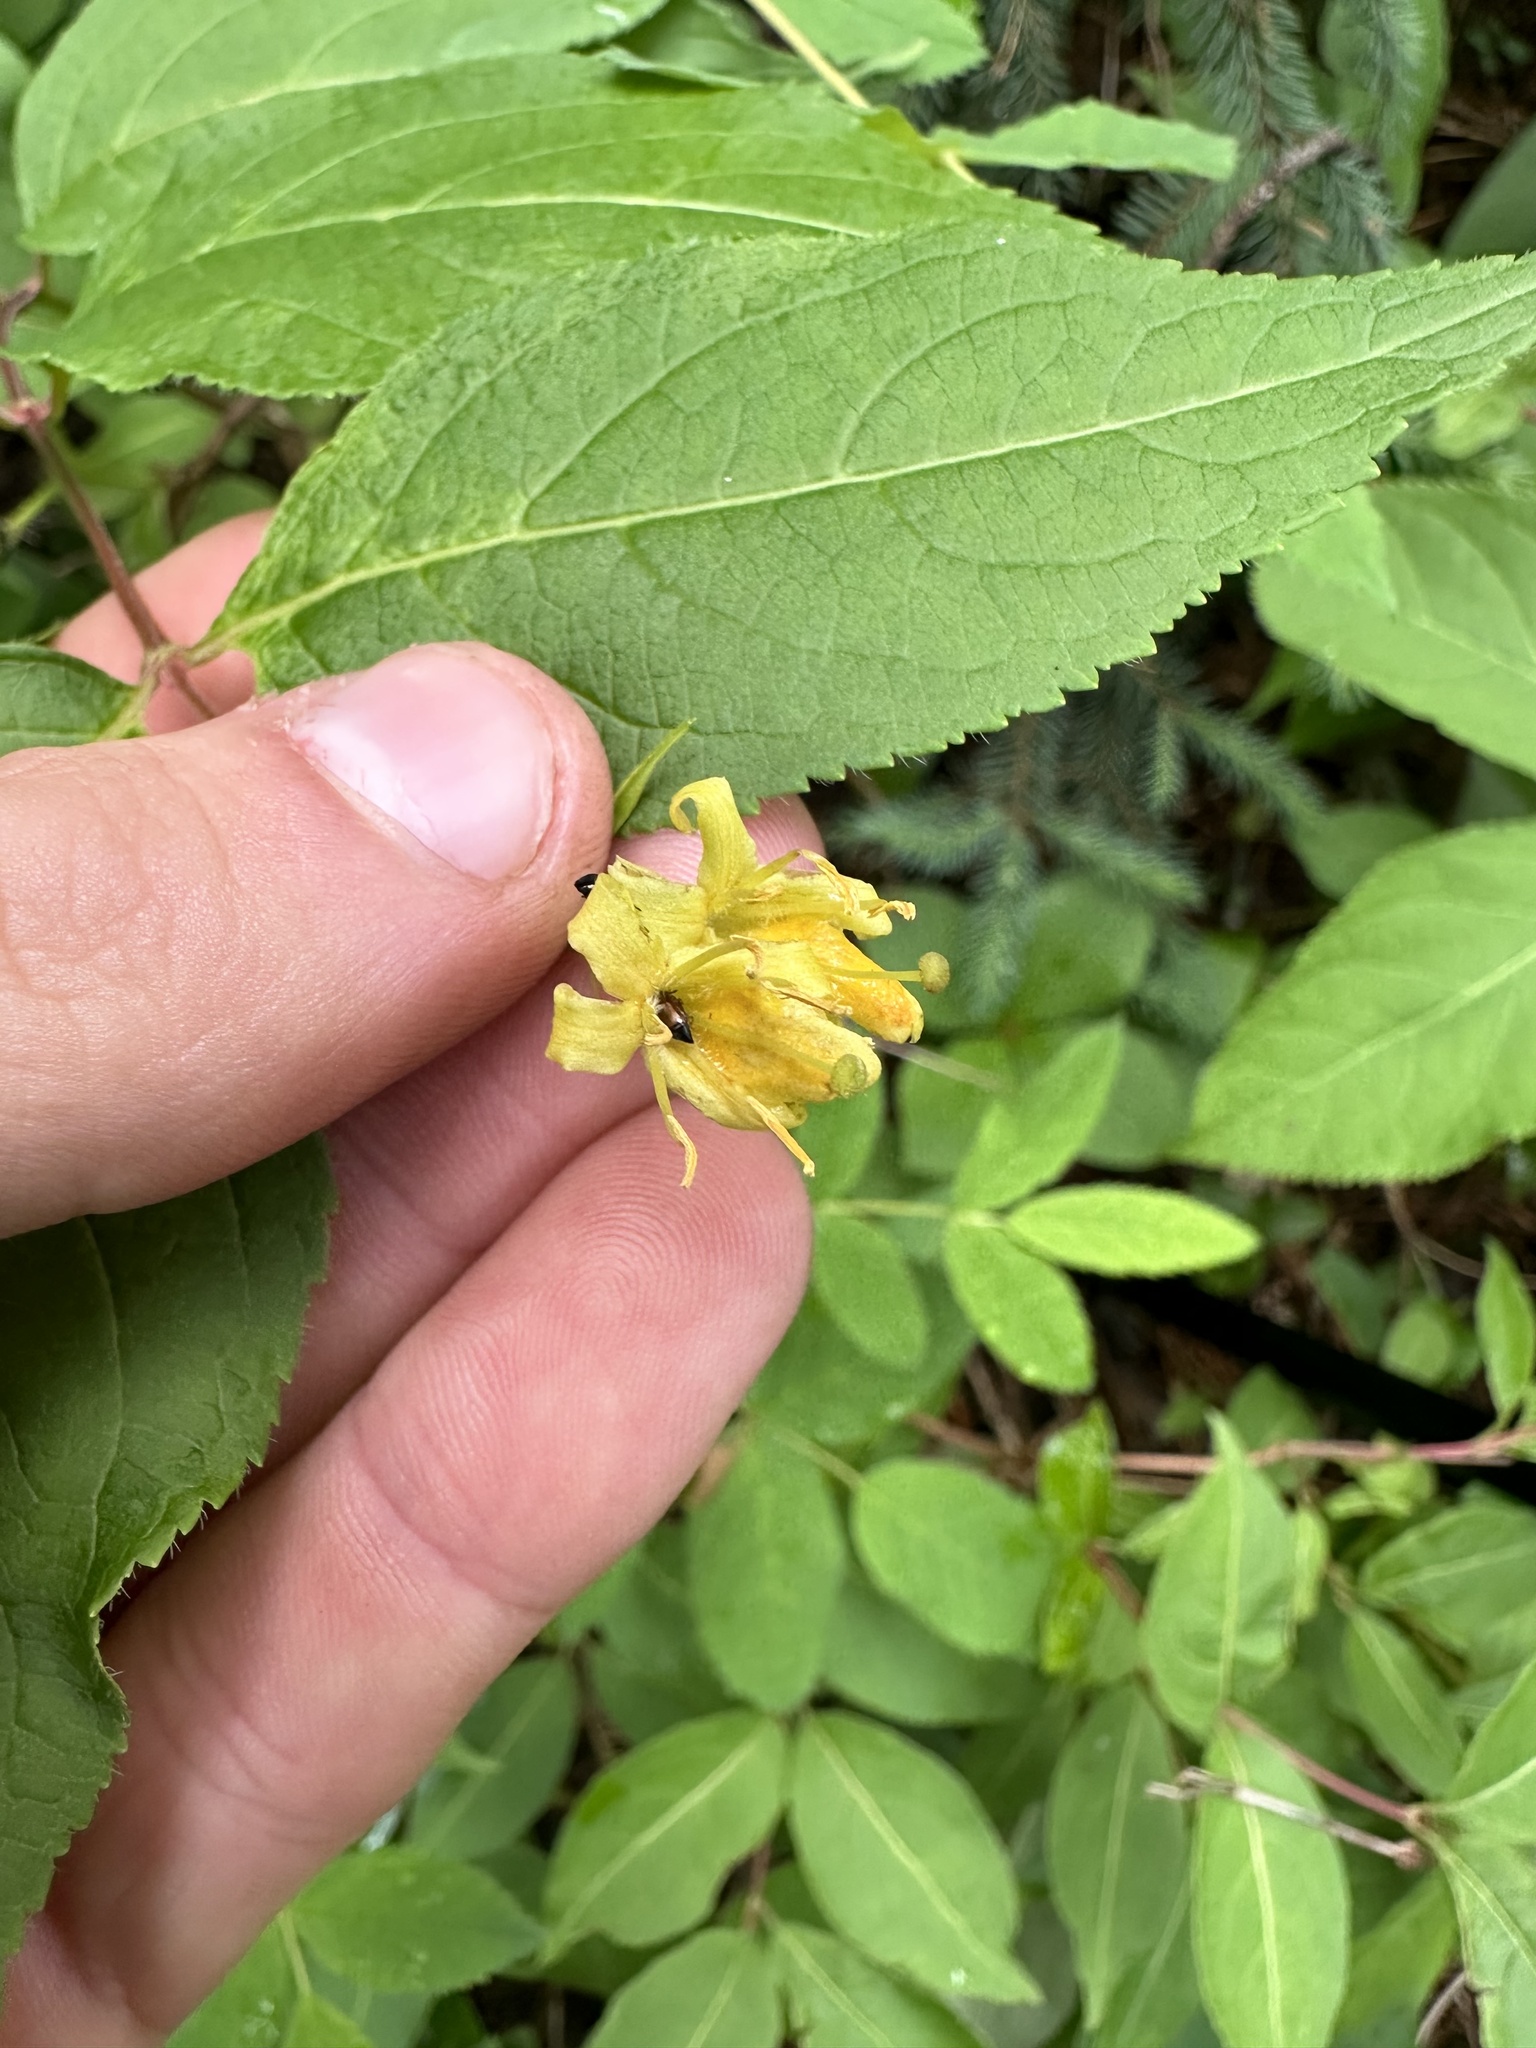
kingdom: Plantae
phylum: Tracheophyta
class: Magnoliopsida
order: Dipsacales
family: Caprifoliaceae
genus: Diervilla
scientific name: Diervilla lonicera
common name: Bush-honeysuckle
